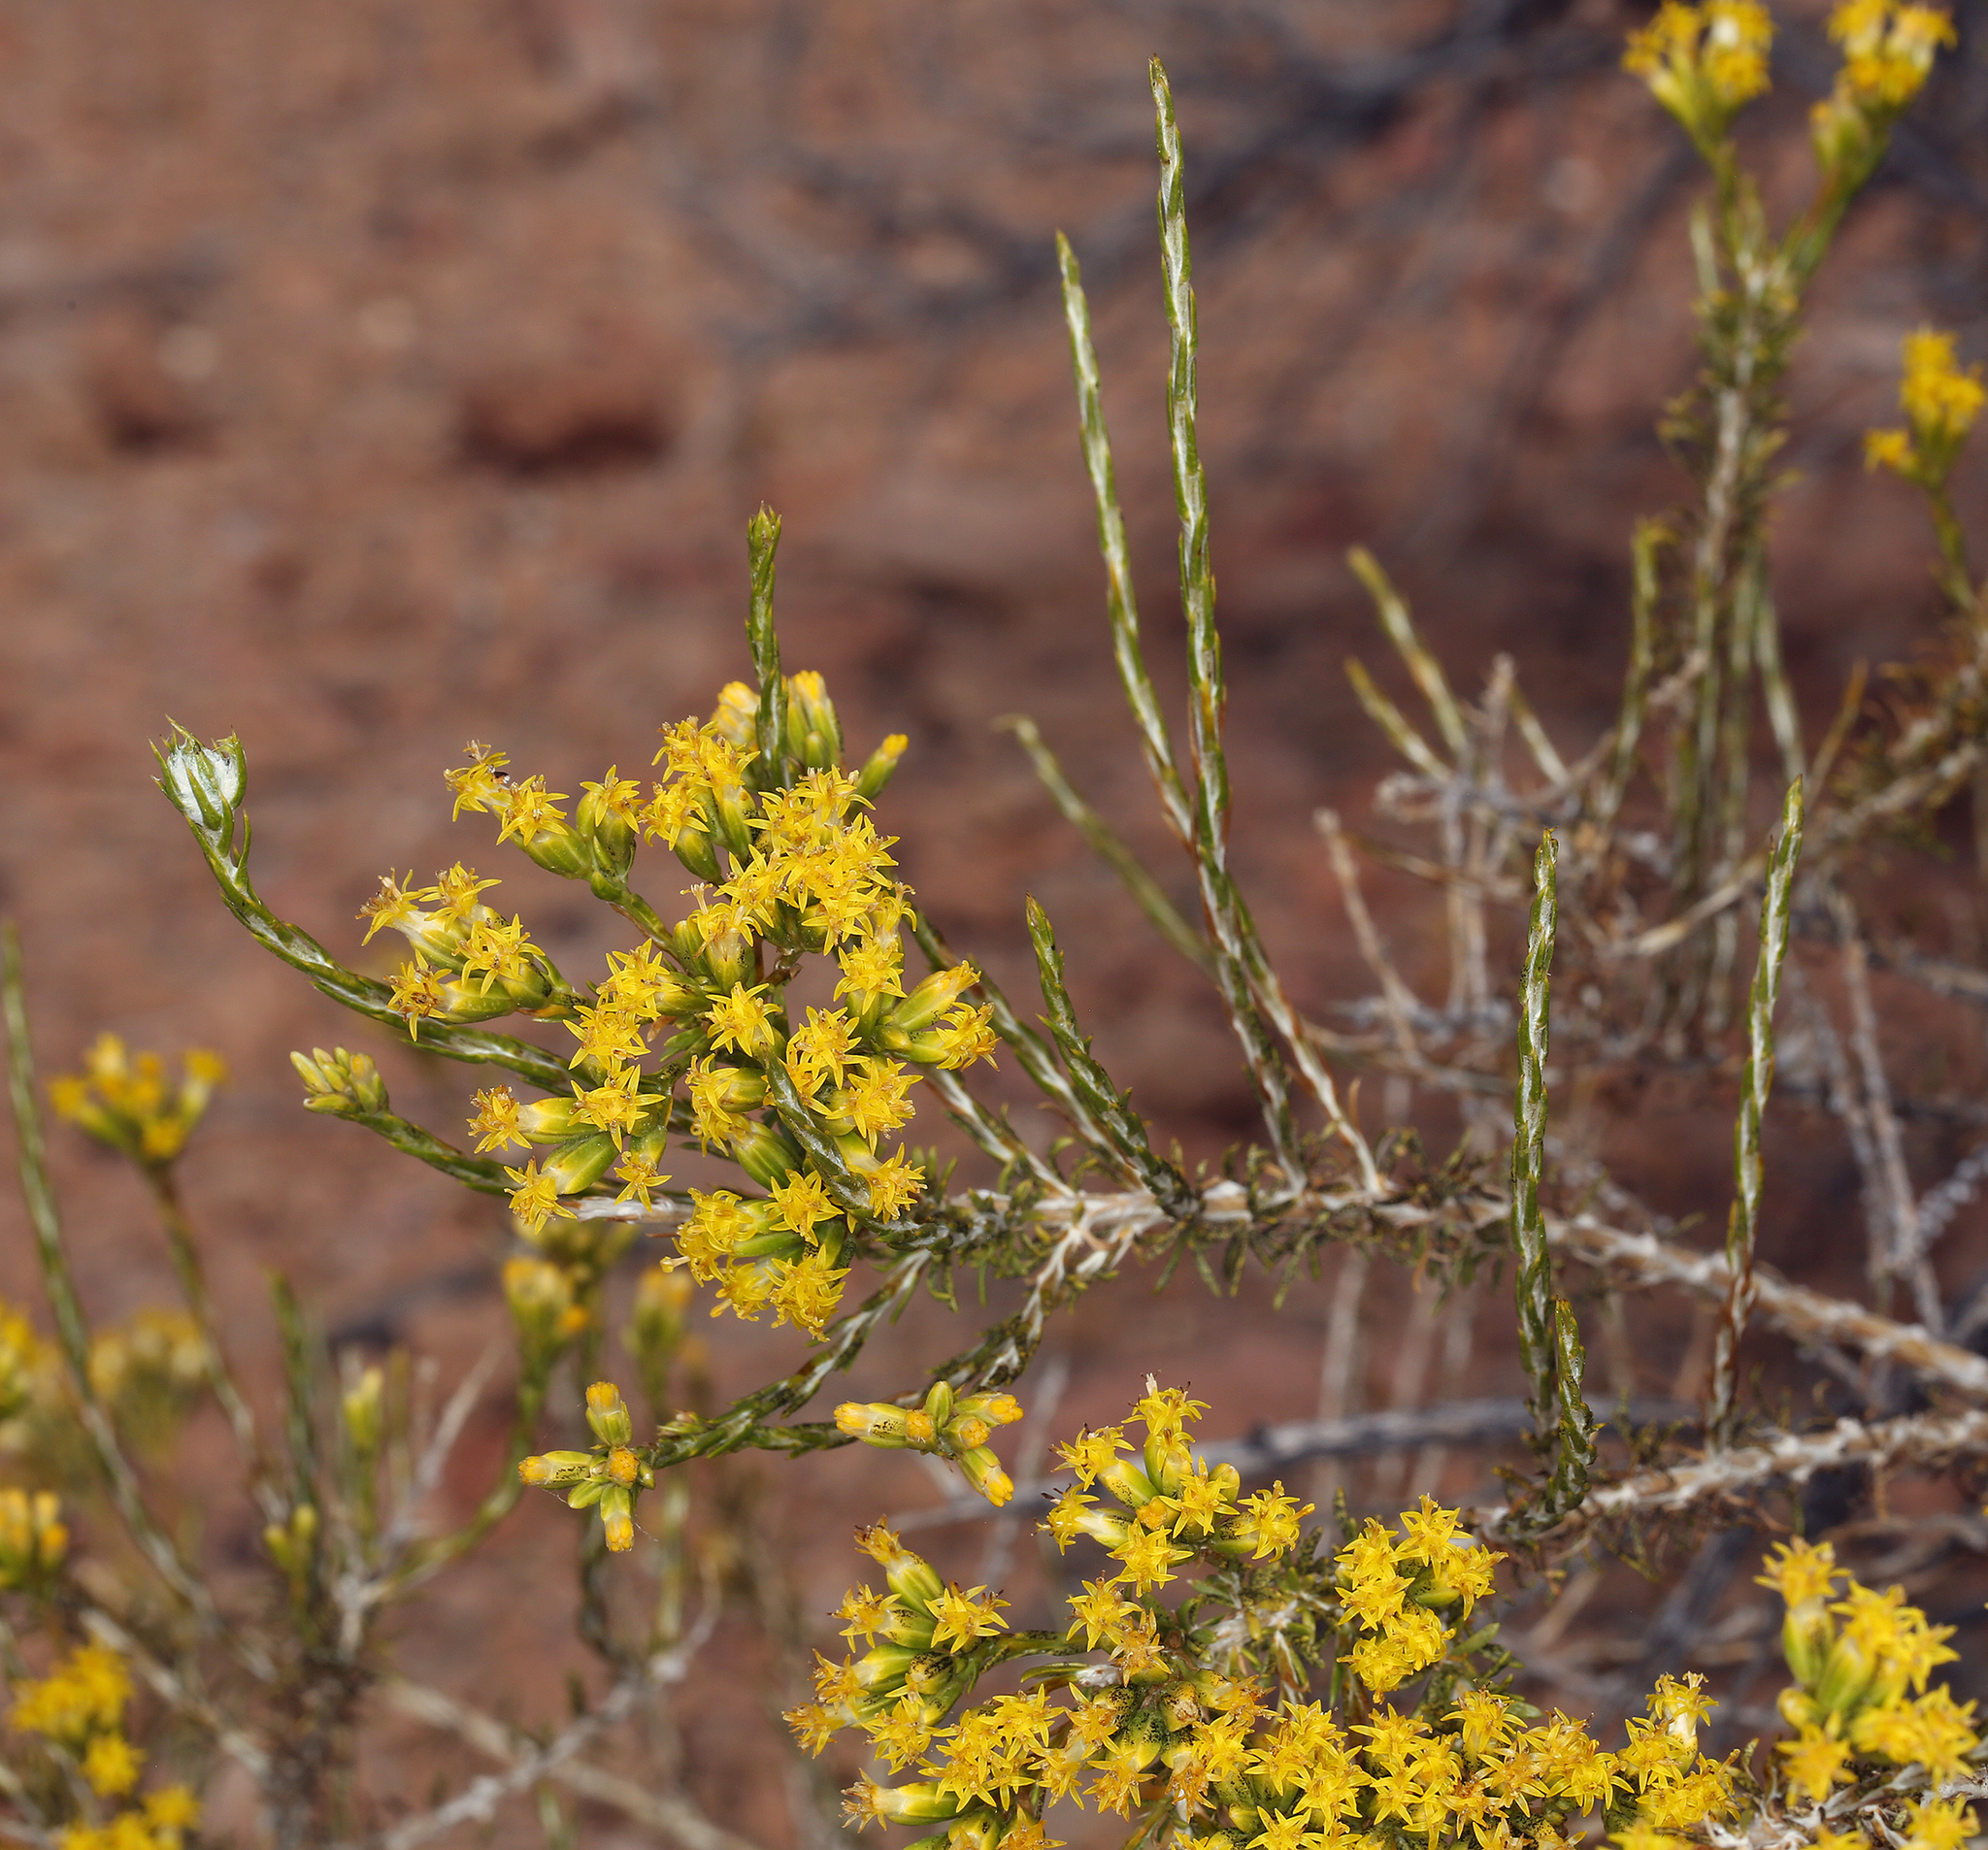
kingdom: Plantae
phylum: Tracheophyta
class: Magnoliopsida
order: Asterales
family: Asteraceae
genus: Tetradymia
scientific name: Tetradymia glabrata
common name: Smooth tetradymia
